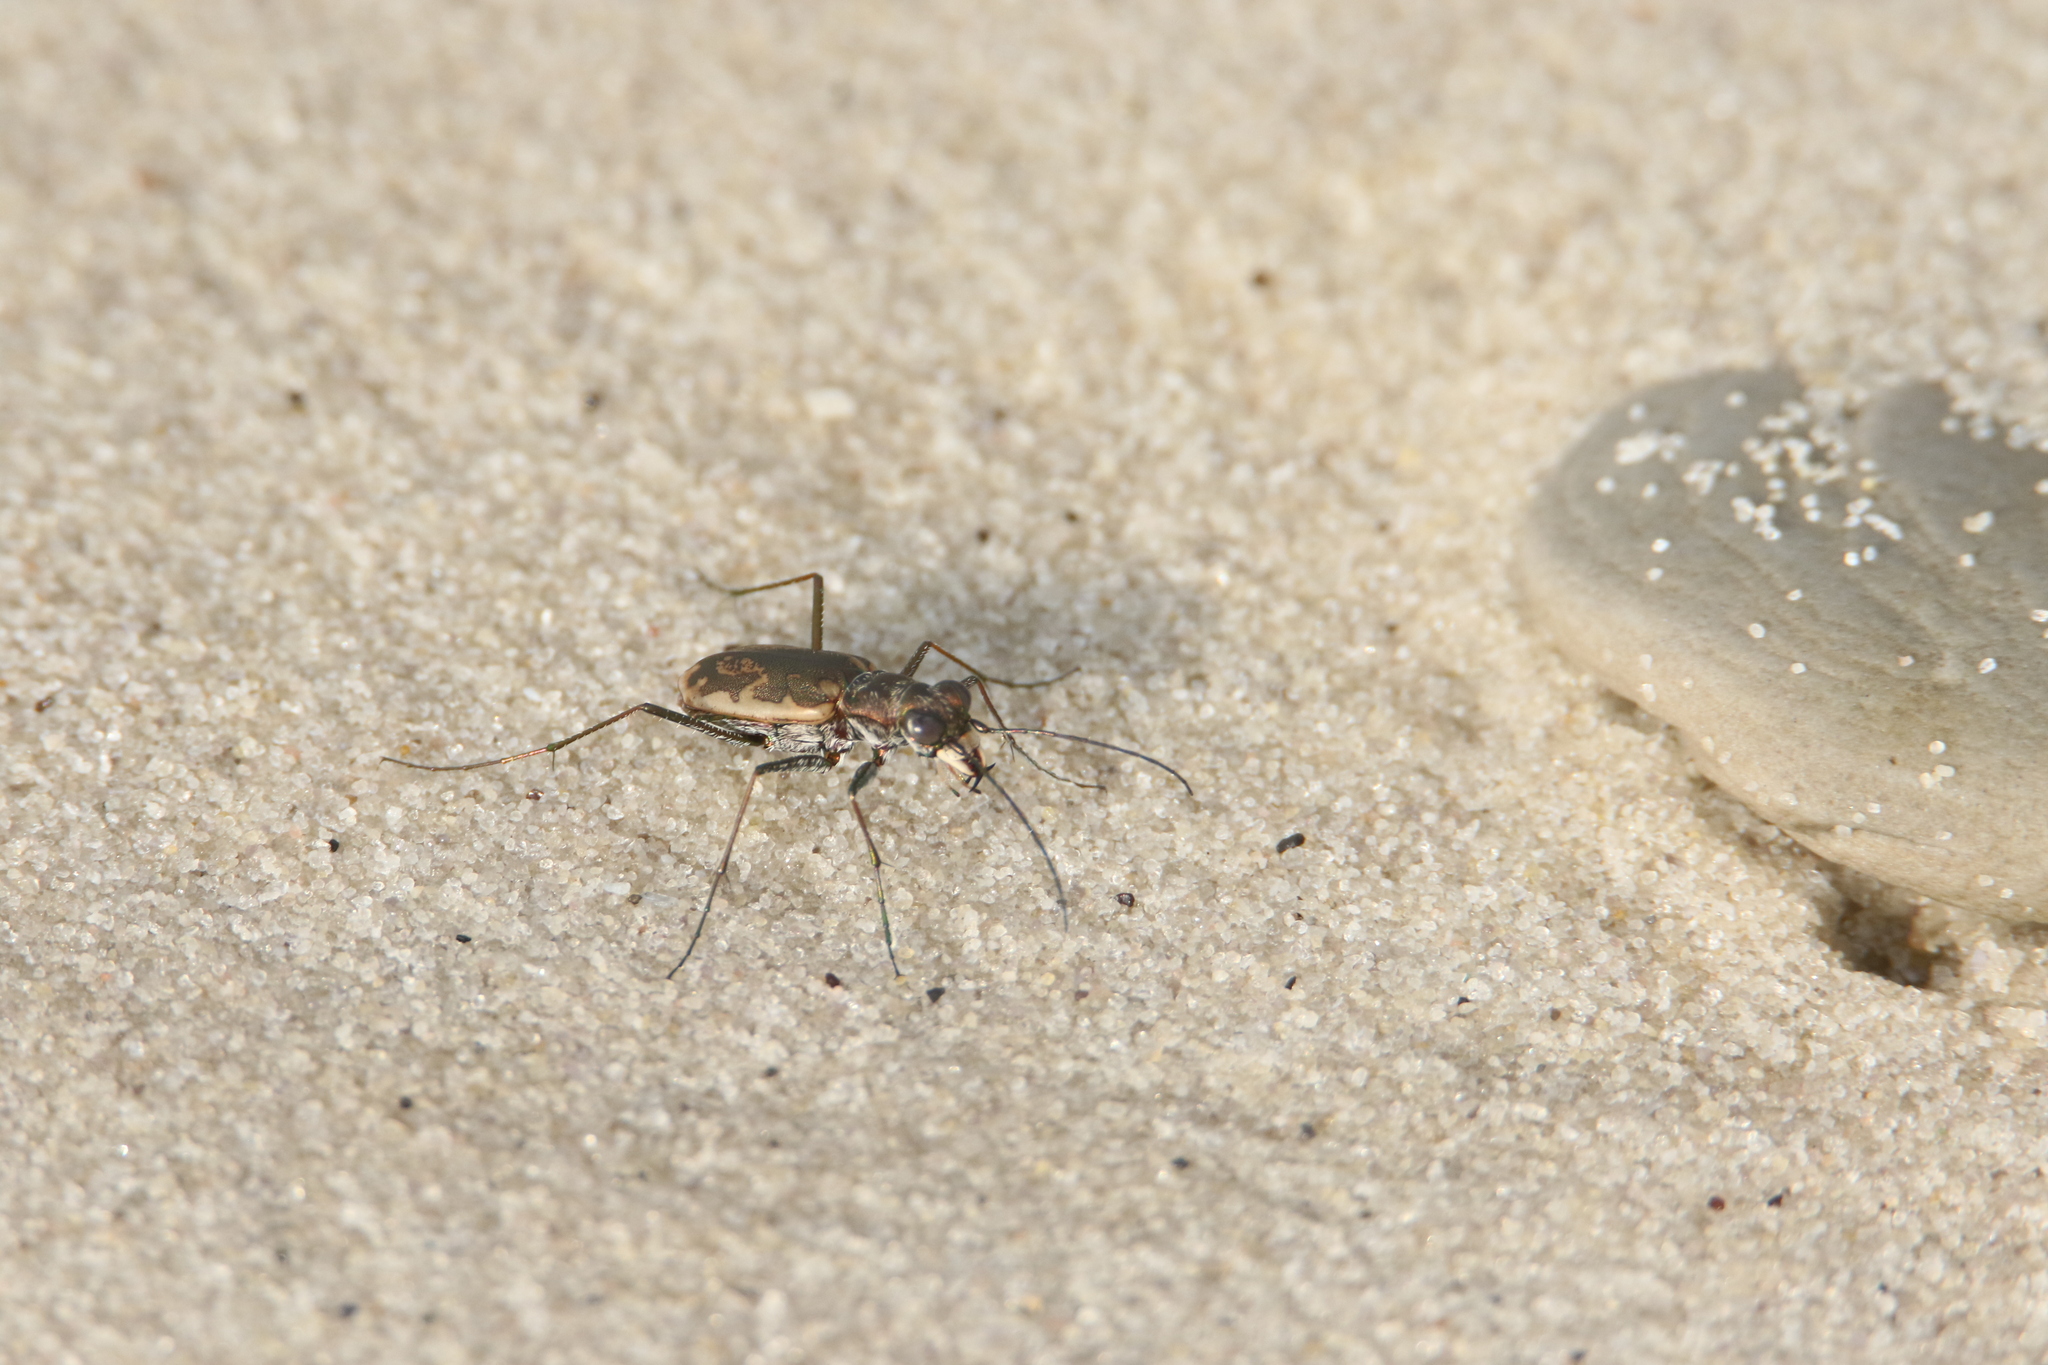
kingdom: Animalia
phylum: Arthropoda
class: Insecta
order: Coleoptera
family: Carabidae
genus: Ellipsoptera
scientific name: Ellipsoptera marginata
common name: Margined tiger beetle
